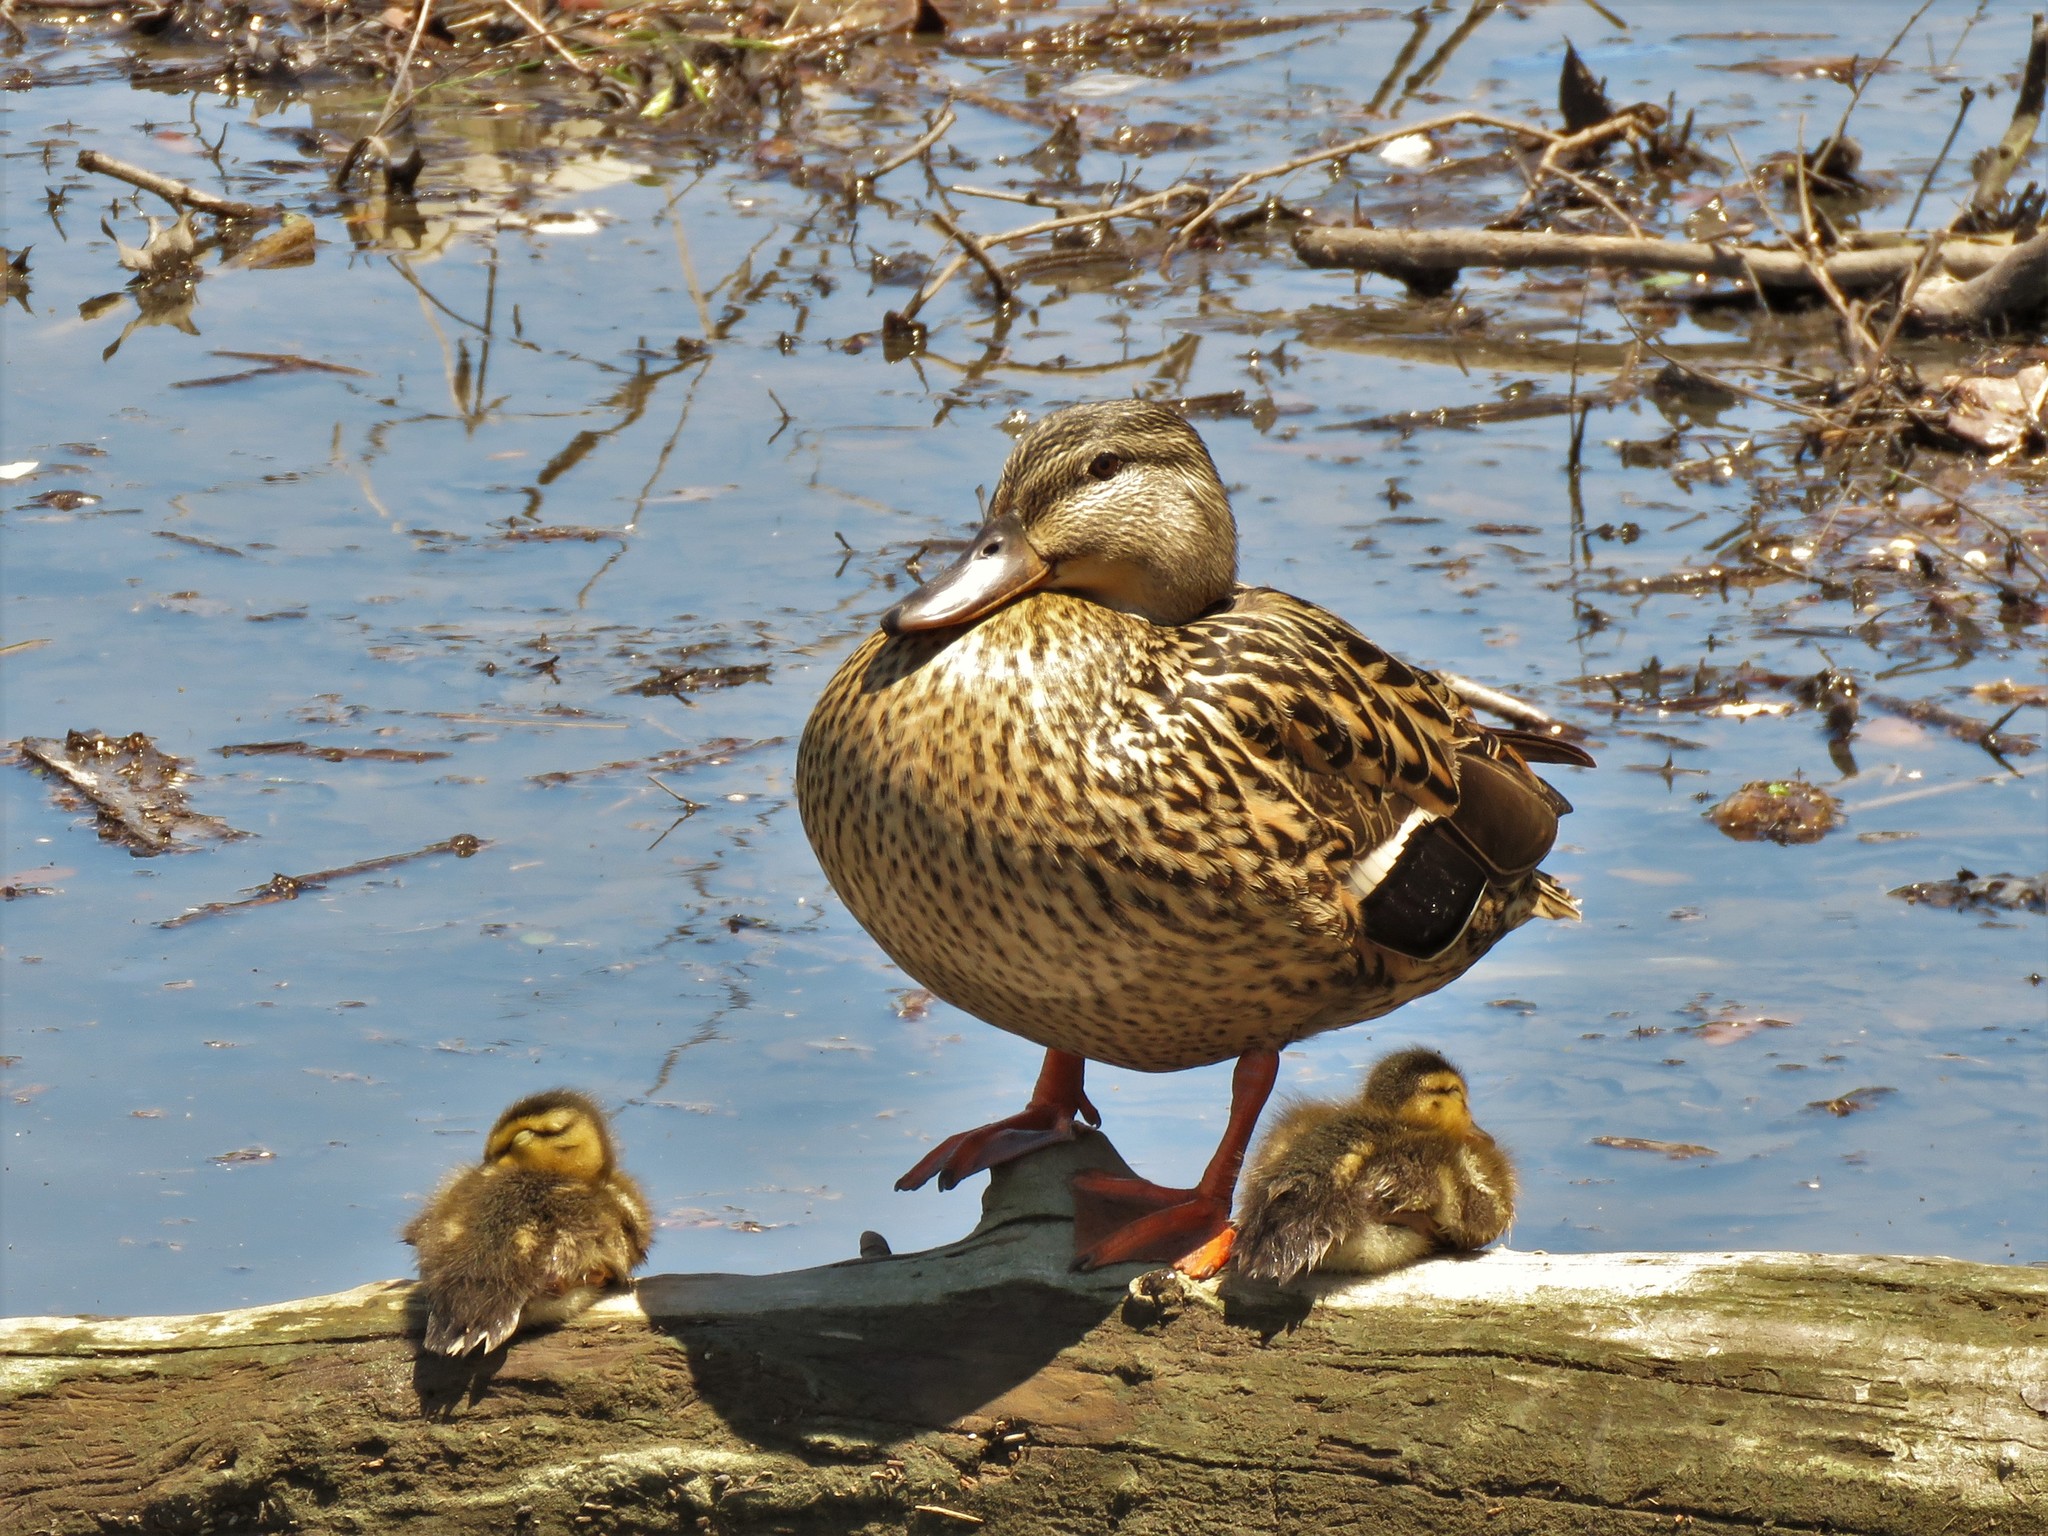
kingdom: Animalia
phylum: Chordata
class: Aves
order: Anseriformes
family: Anatidae
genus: Anas
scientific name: Anas platyrhynchos
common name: Mallard
